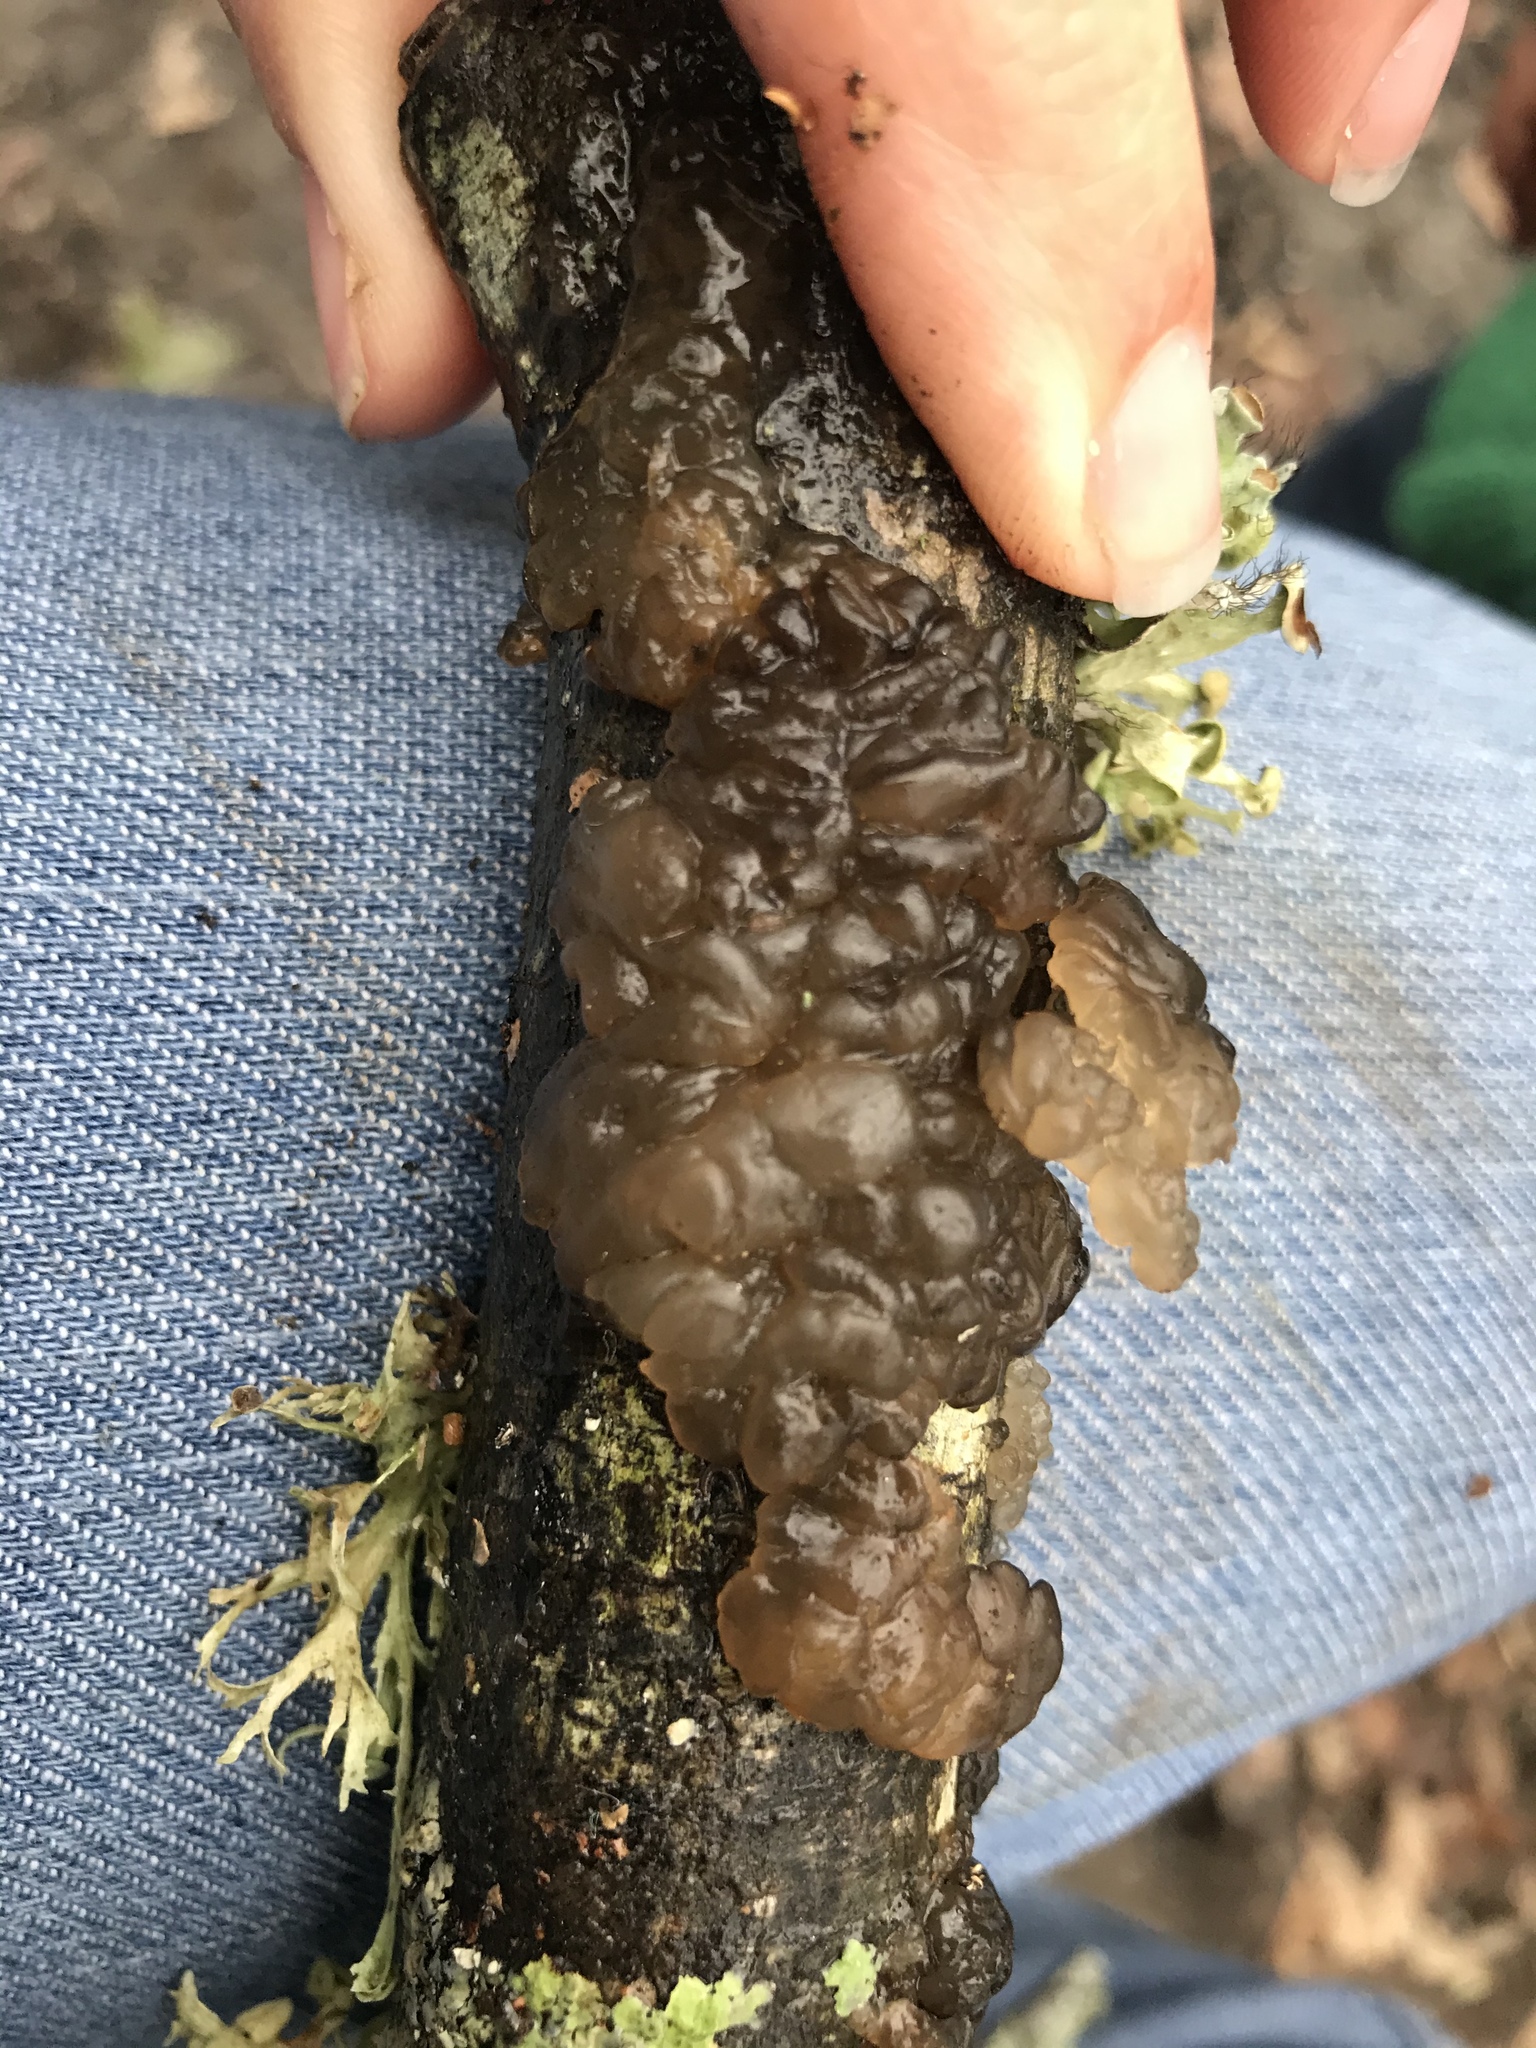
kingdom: Fungi
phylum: Basidiomycota
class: Agaricomycetes
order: Auriculariales
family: Hyaloriaceae
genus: Myxarium
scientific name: Myxarium nucleatum
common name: Crystal brain fungus
